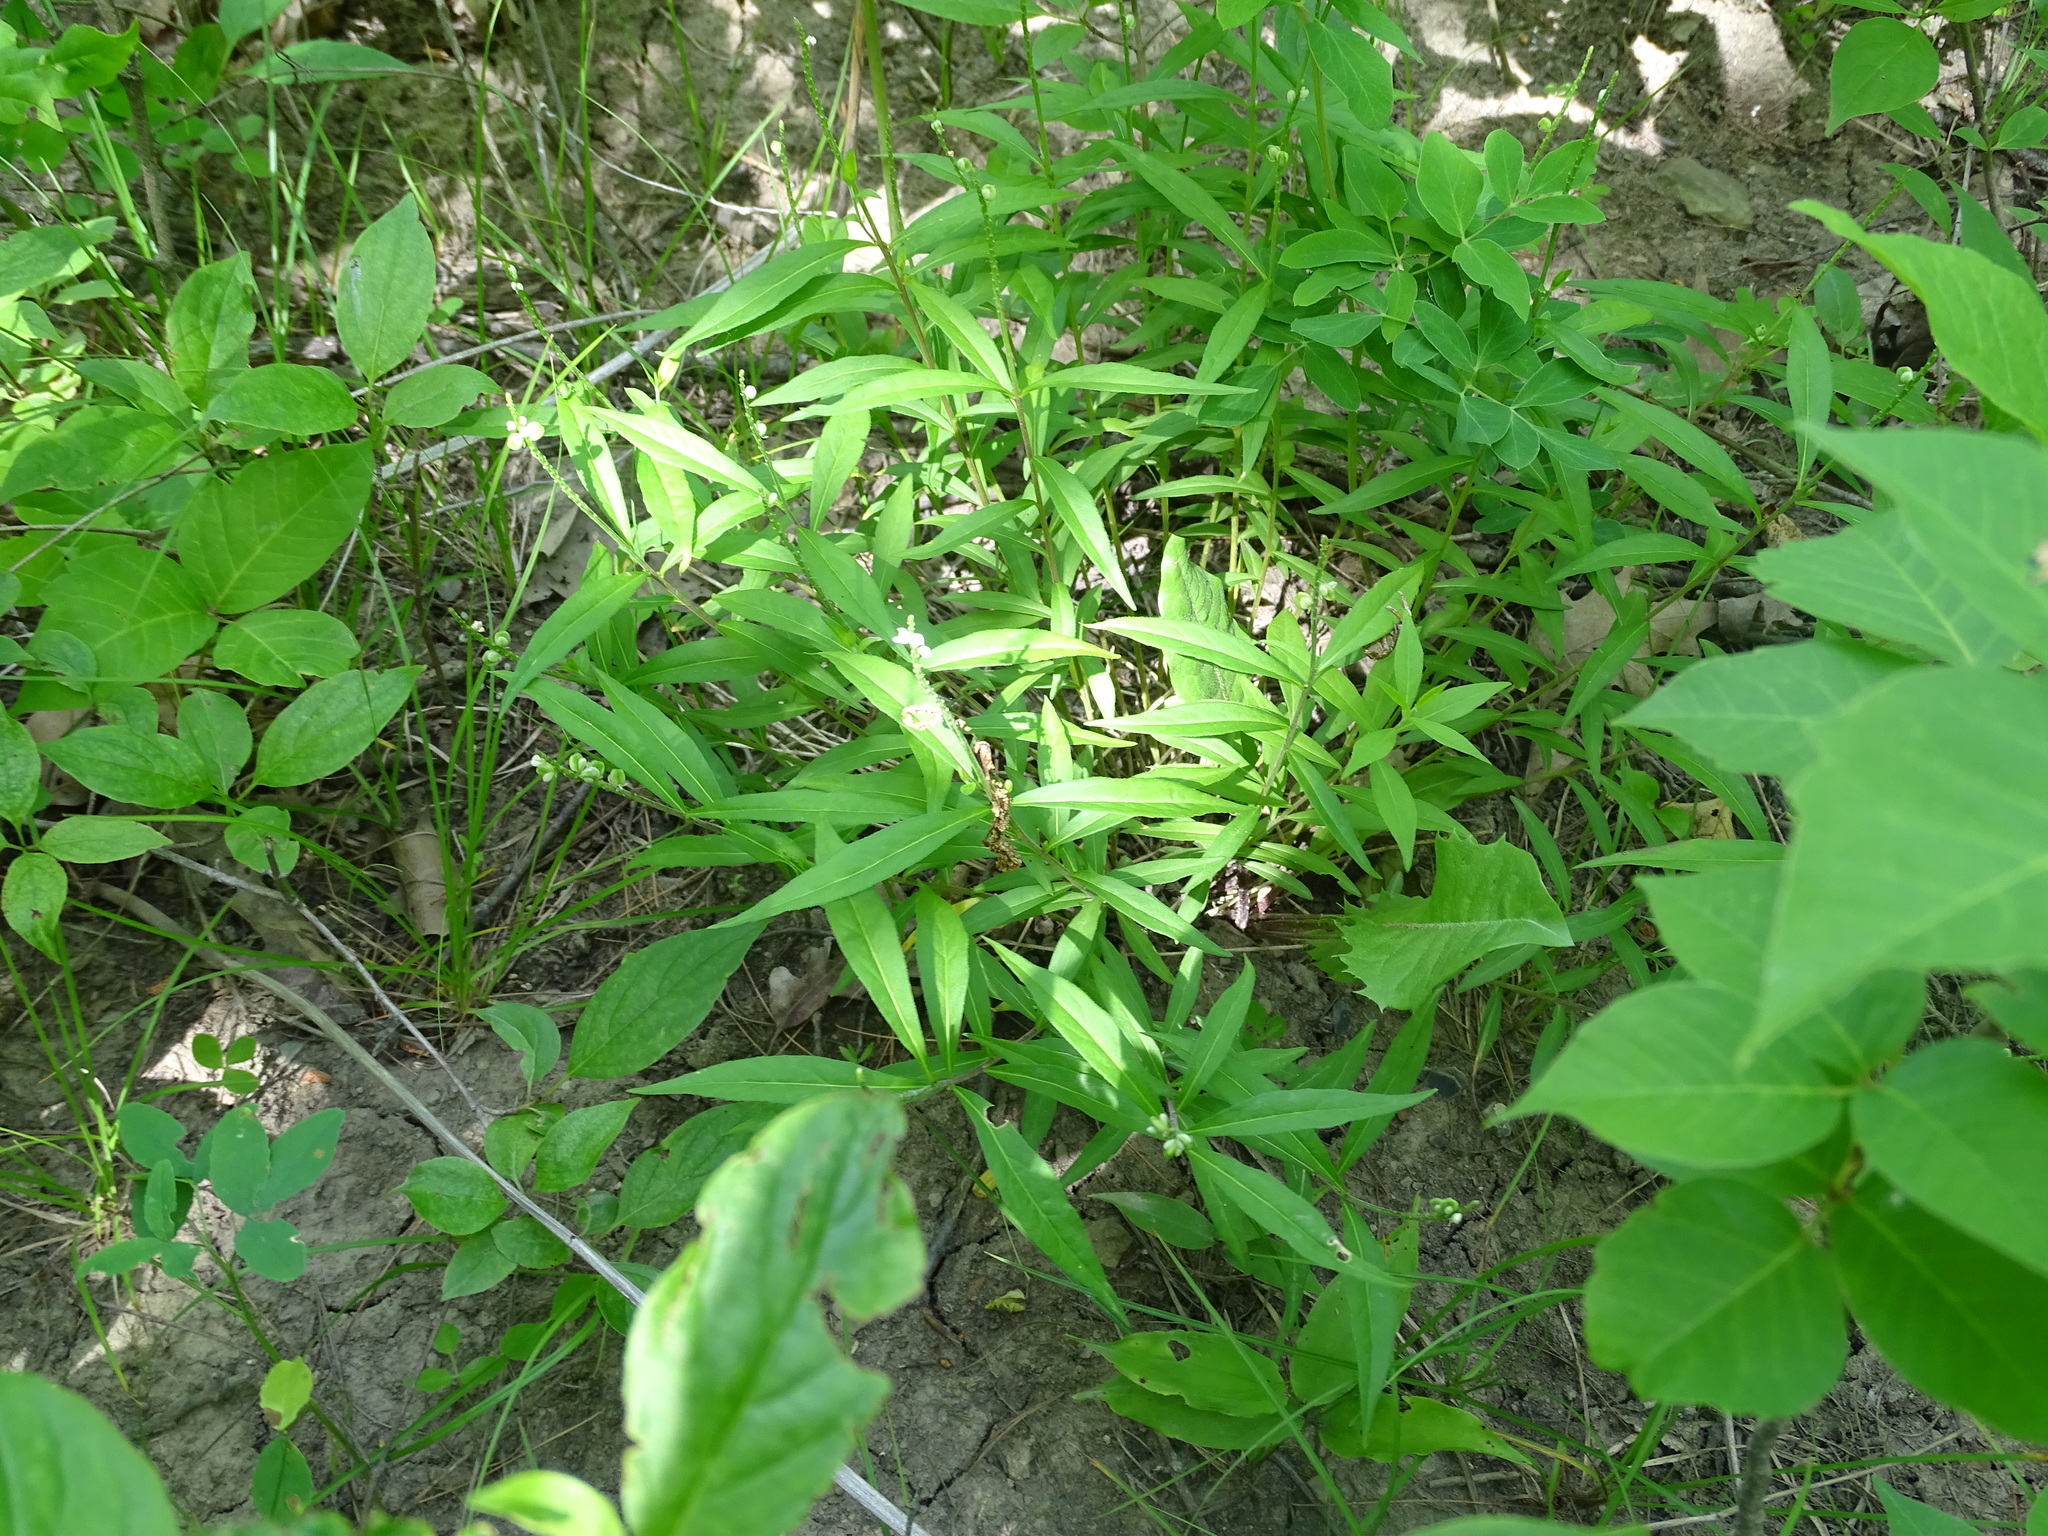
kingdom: Plantae
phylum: Tracheophyta
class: Magnoliopsida
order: Fabales
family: Polygalaceae
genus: Polygala
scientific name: Polygala senega
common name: Seneca snakeroot
